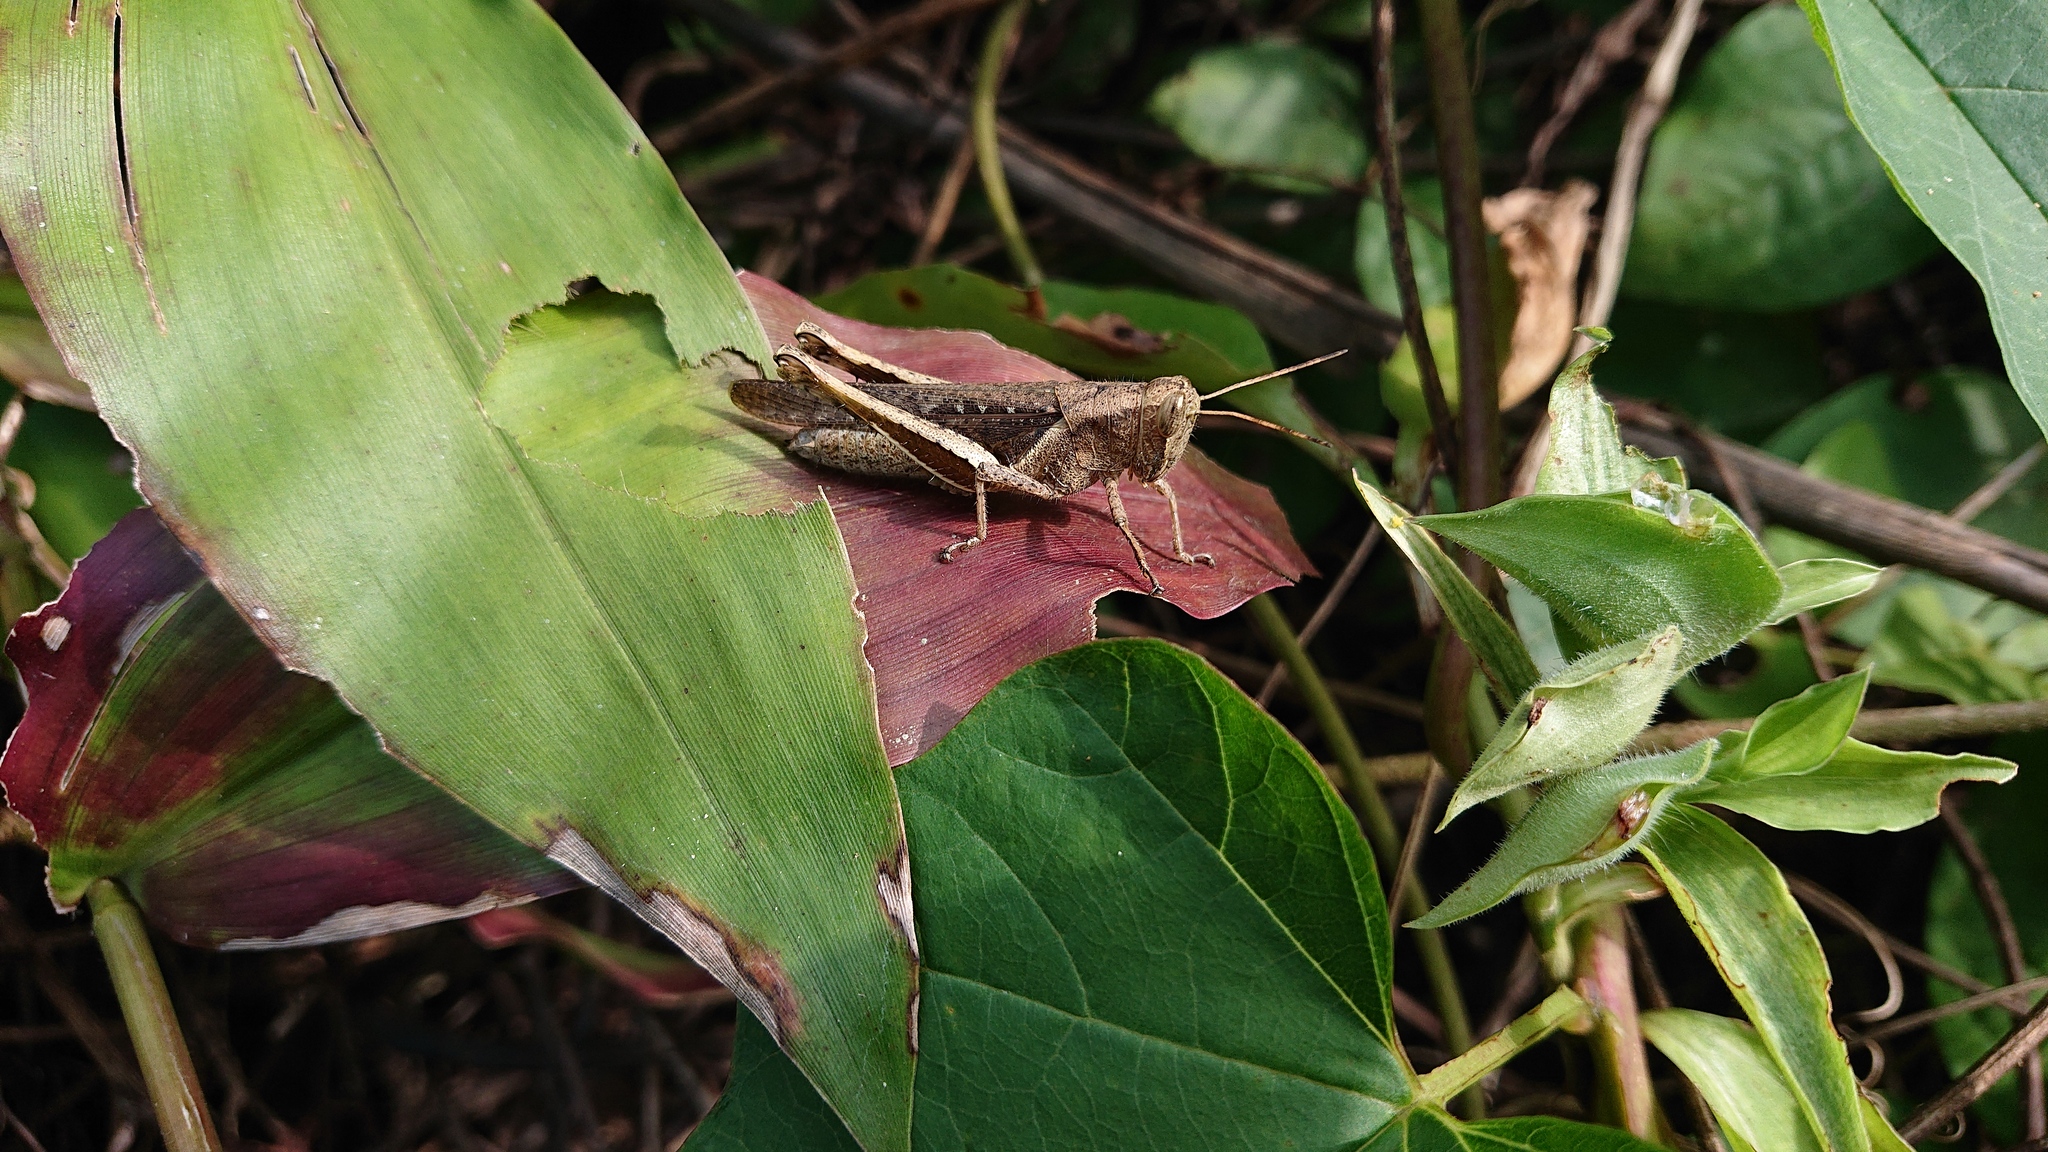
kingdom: Animalia
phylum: Arthropoda
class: Insecta
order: Orthoptera
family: Acrididae
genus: Abracris
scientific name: Abracris flavolineata
